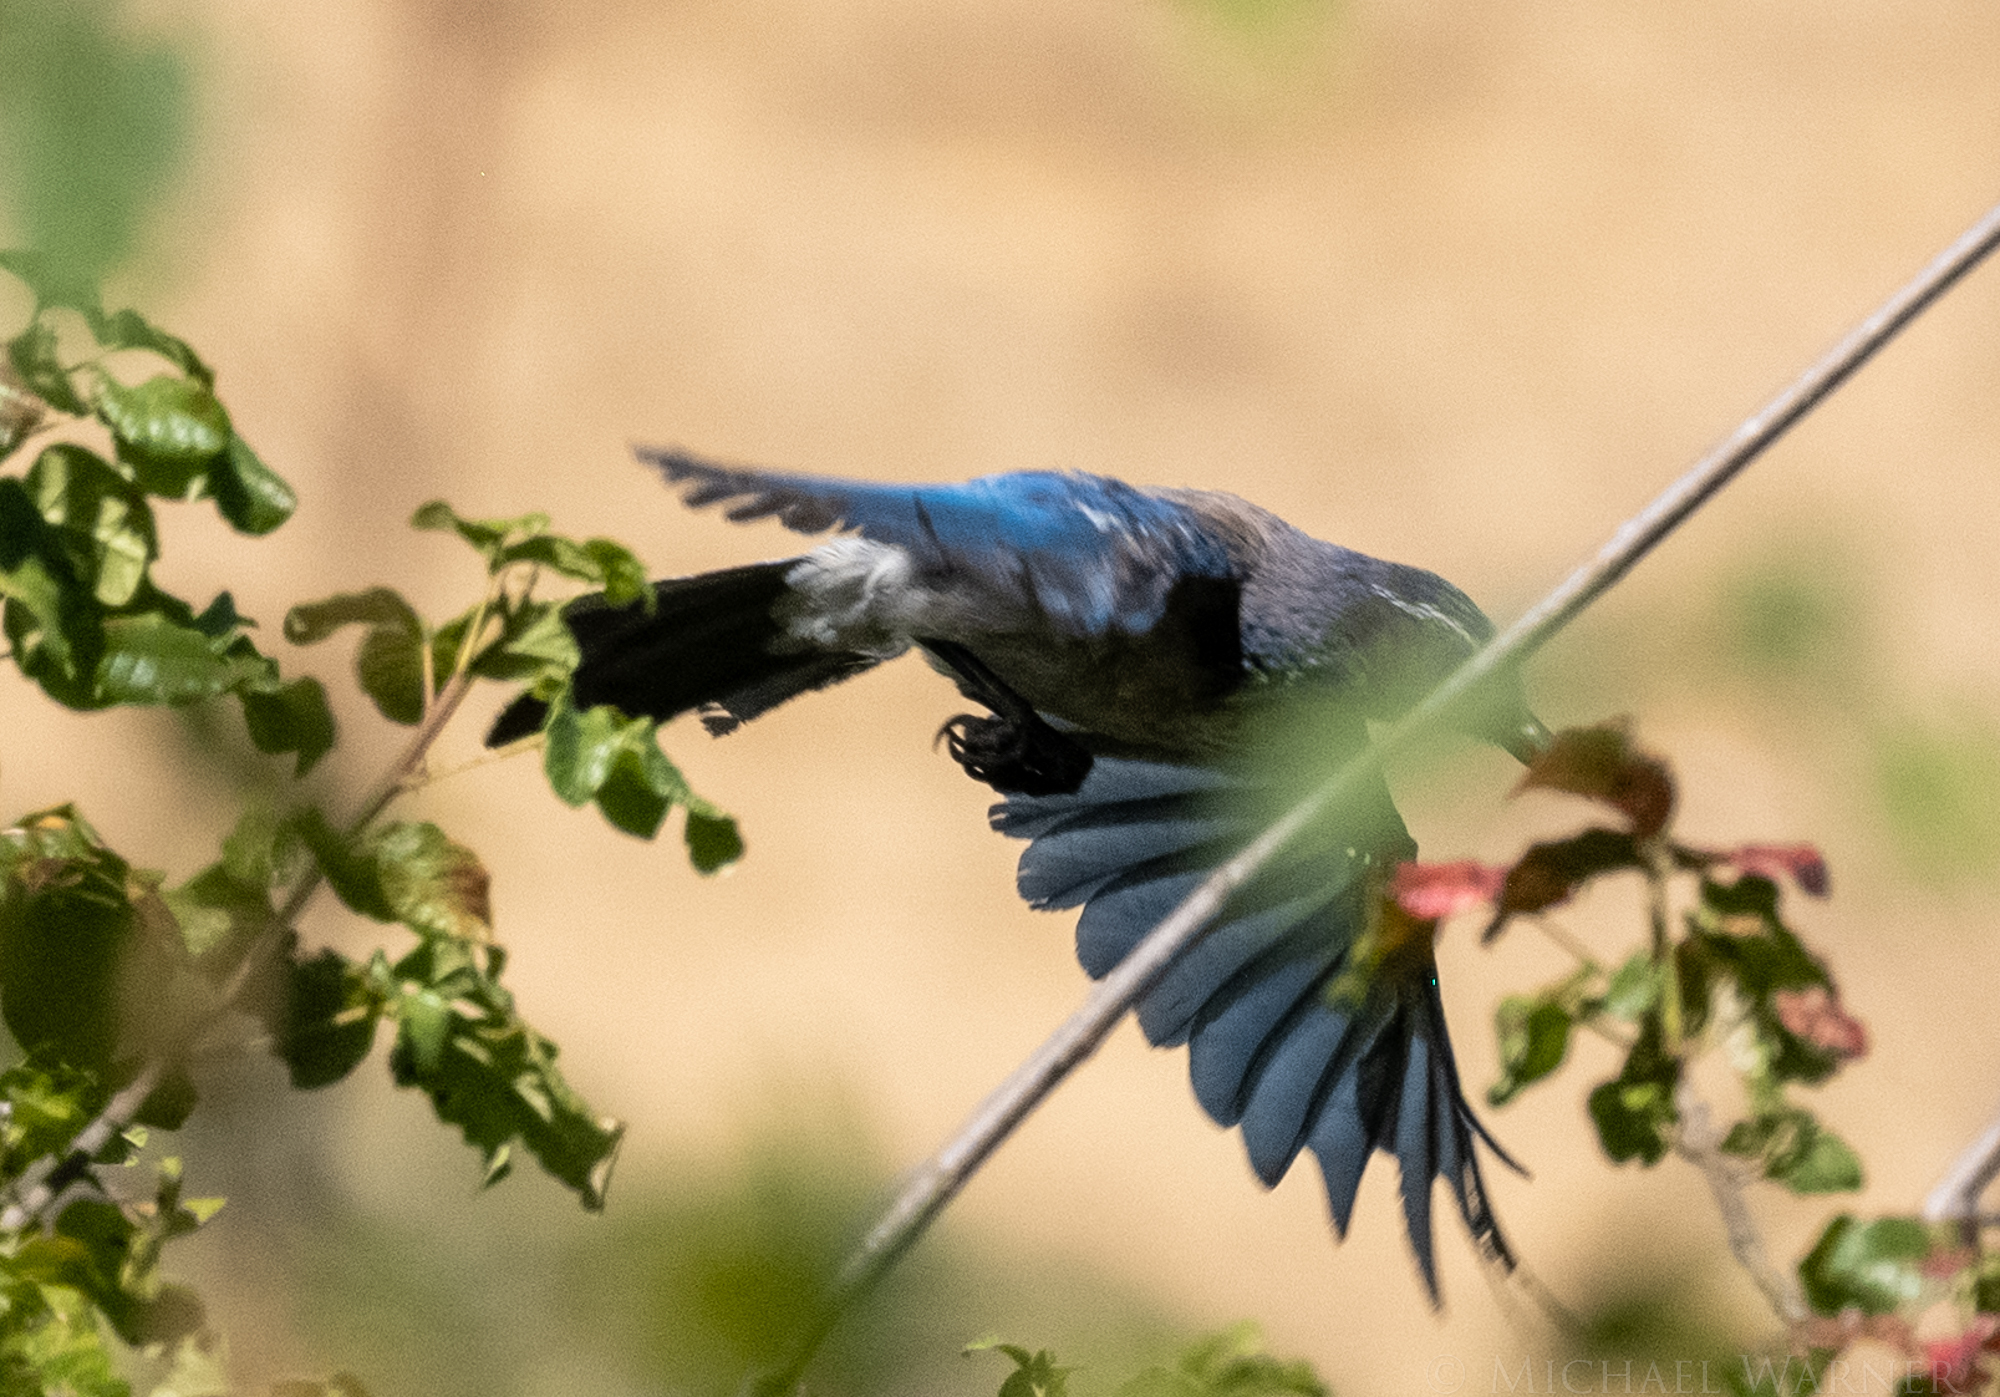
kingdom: Animalia
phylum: Chordata
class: Aves
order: Passeriformes
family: Corvidae
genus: Aphelocoma
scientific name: Aphelocoma californica
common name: California scrub-jay
